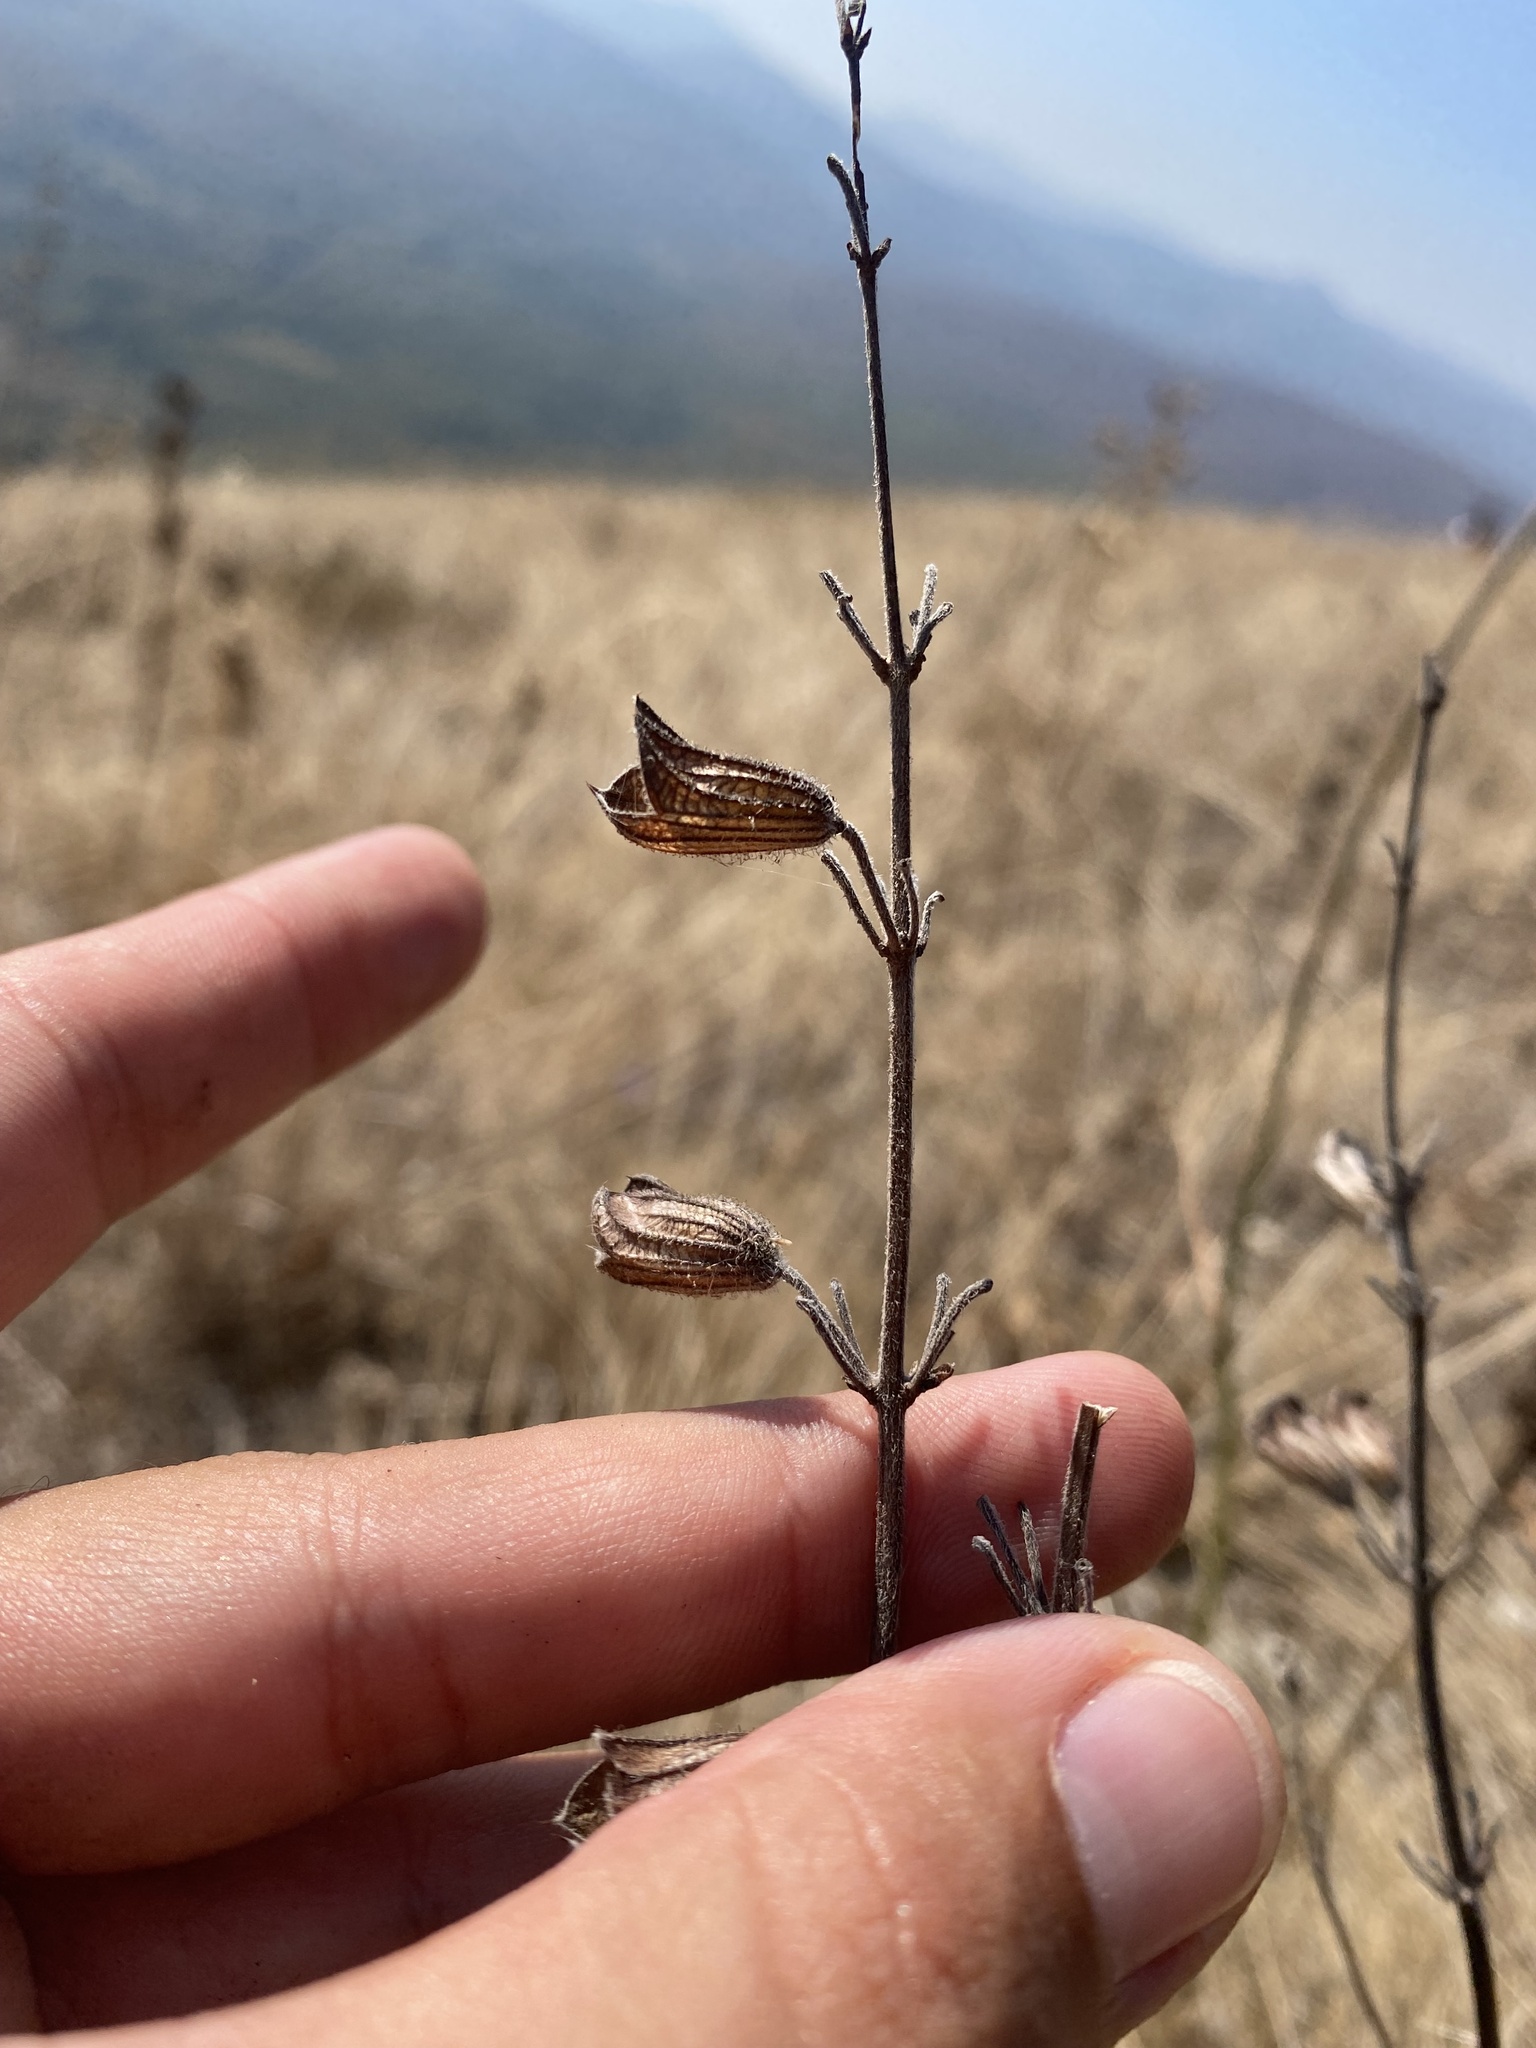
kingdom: Plantae
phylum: Tracheophyta
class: Magnoliopsida
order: Lamiales
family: Lamiaceae
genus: Salvia
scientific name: Salvia ringens
